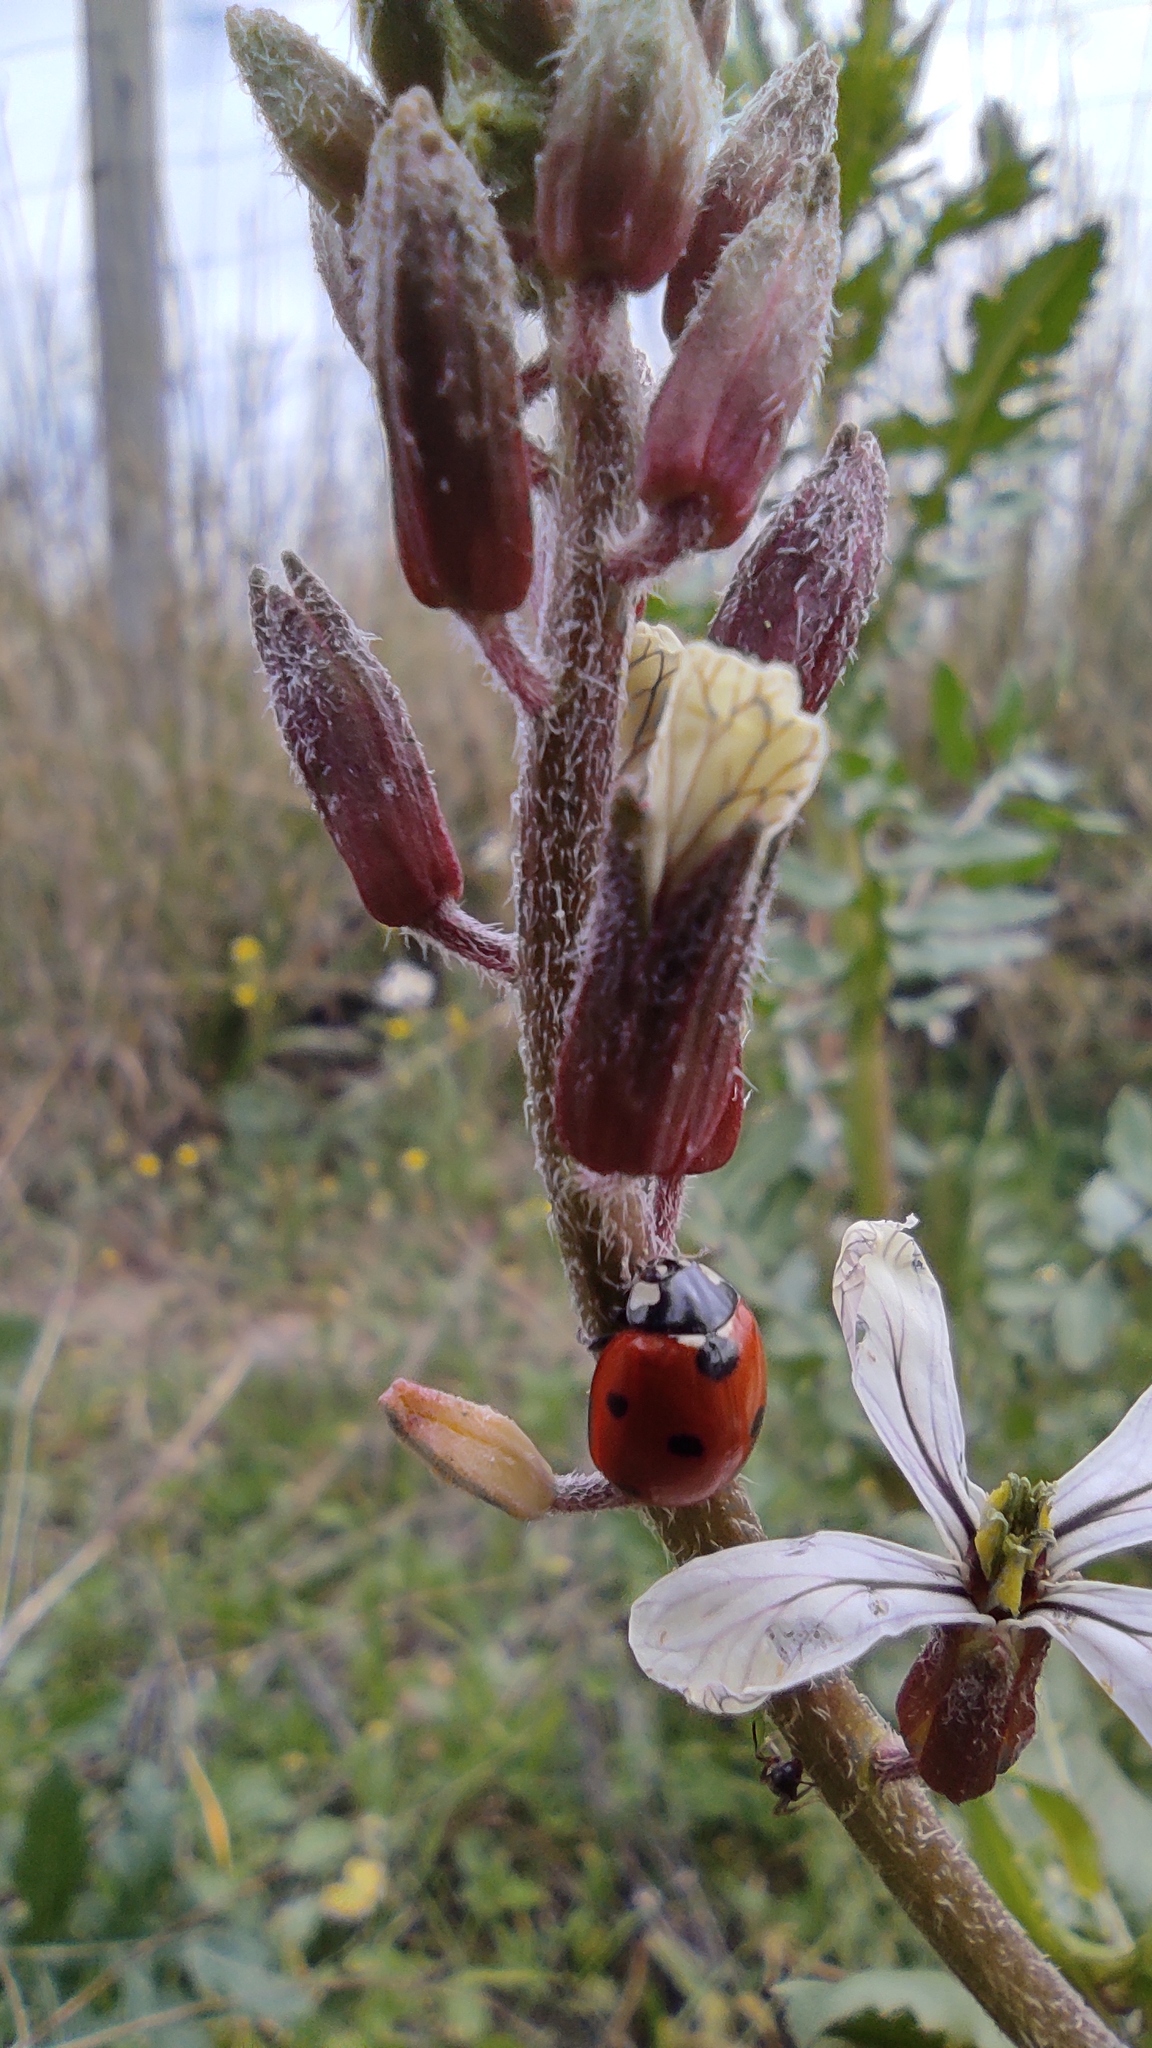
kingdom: Animalia
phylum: Arthropoda
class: Insecta
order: Coleoptera
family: Coccinellidae
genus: Coccinella
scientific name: Coccinella septempunctata
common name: Sevenspotted lady beetle
